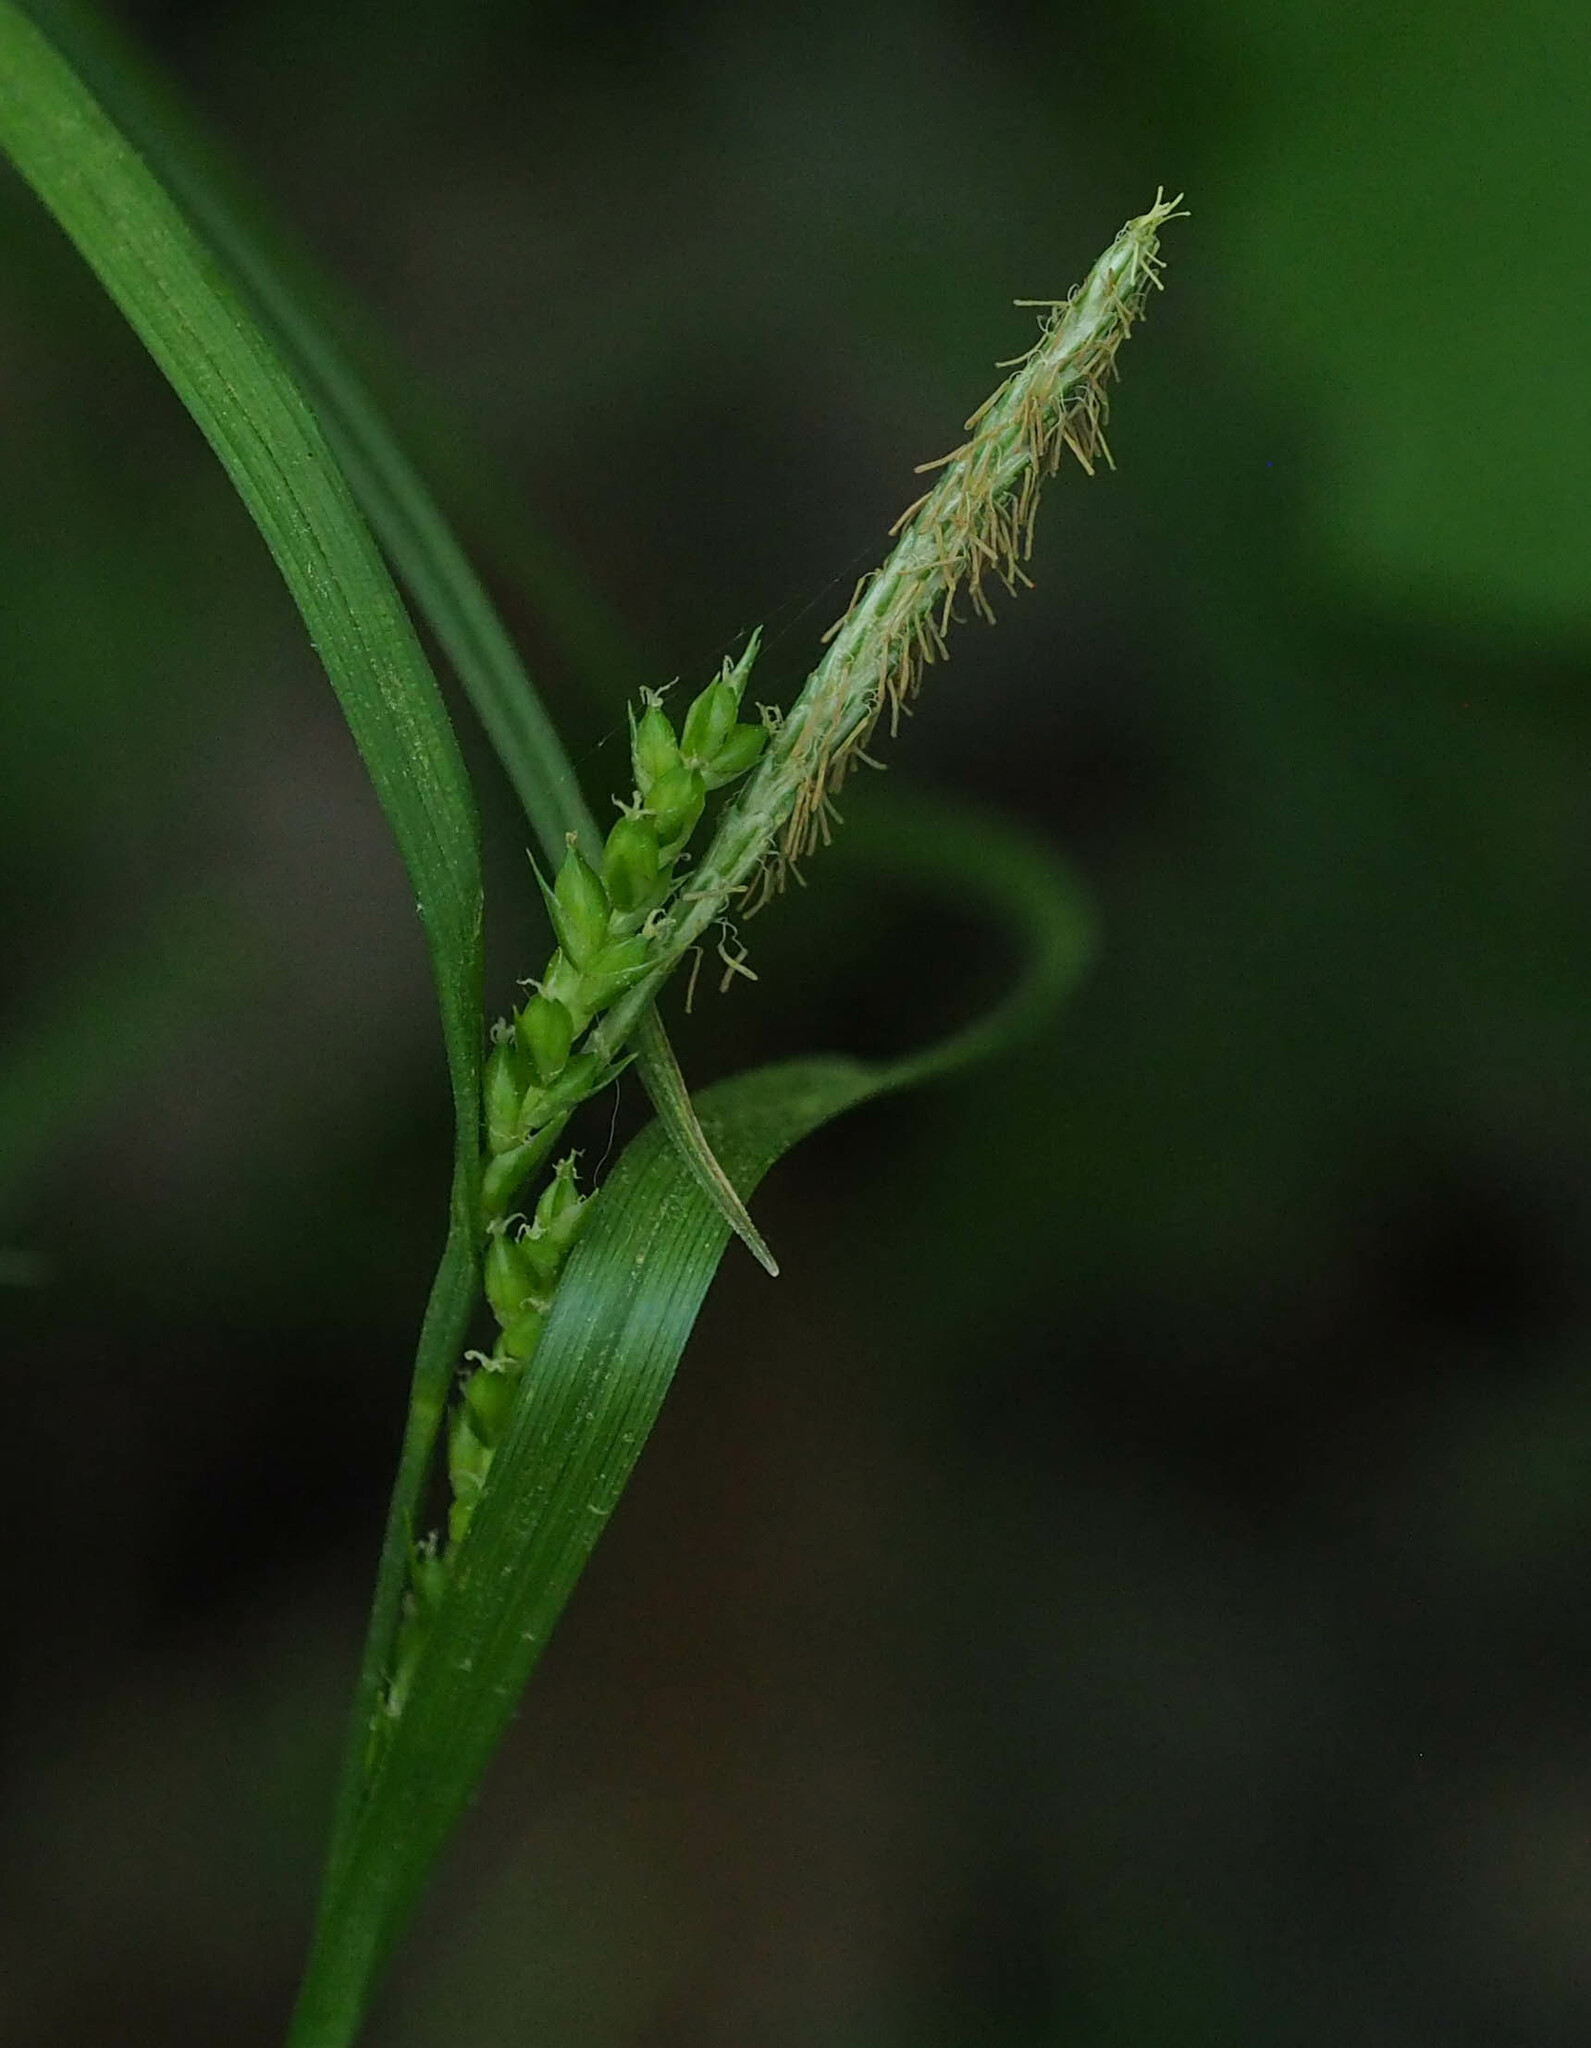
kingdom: Plantae
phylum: Tracheophyta
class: Liliopsida
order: Poales
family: Cyperaceae
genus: Carex
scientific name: Carex blanda
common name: Bland sedge
